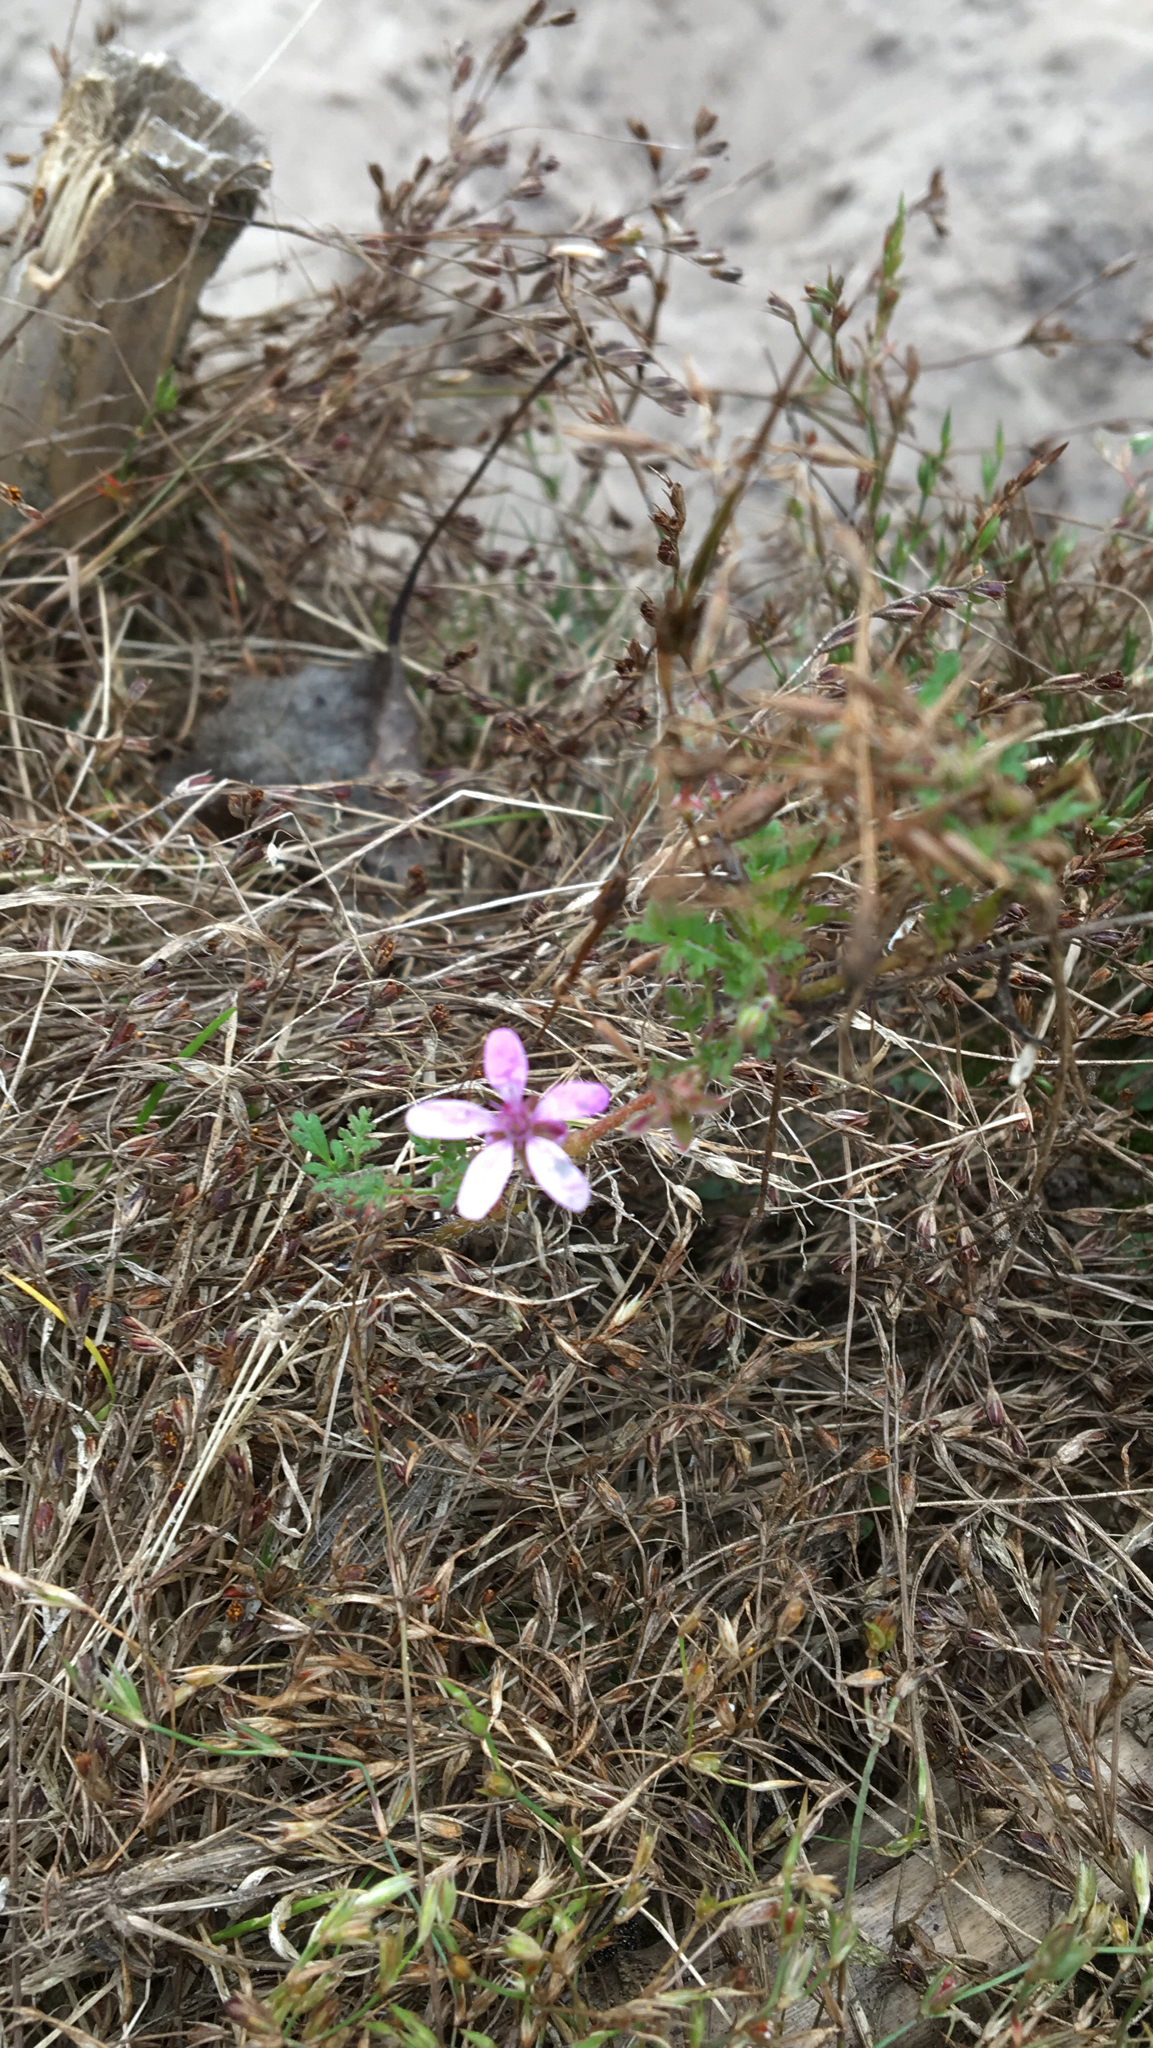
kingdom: Plantae
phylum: Tracheophyta
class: Magnoliopsida
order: Geraniales
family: Geraniaceae
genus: Erodium
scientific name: Erodium cicutarium
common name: Common stork's-bill
